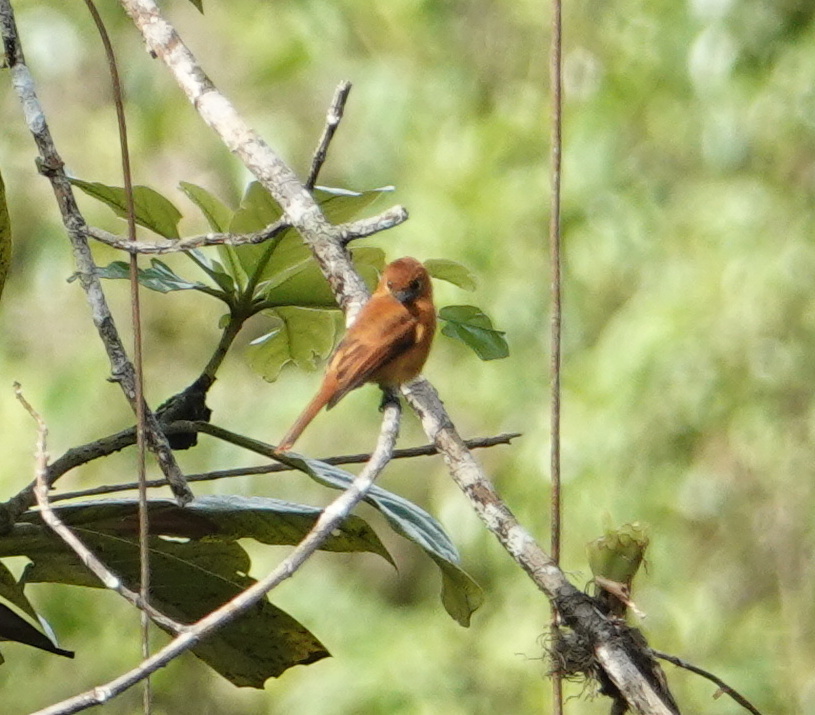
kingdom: Animalia
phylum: Chordata
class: Aves
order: Passeriformes
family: Tyrannidae
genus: Pyrrhomyias
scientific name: Pyrrhomyias cinnamomeus
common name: Cinnamon flycatcher
